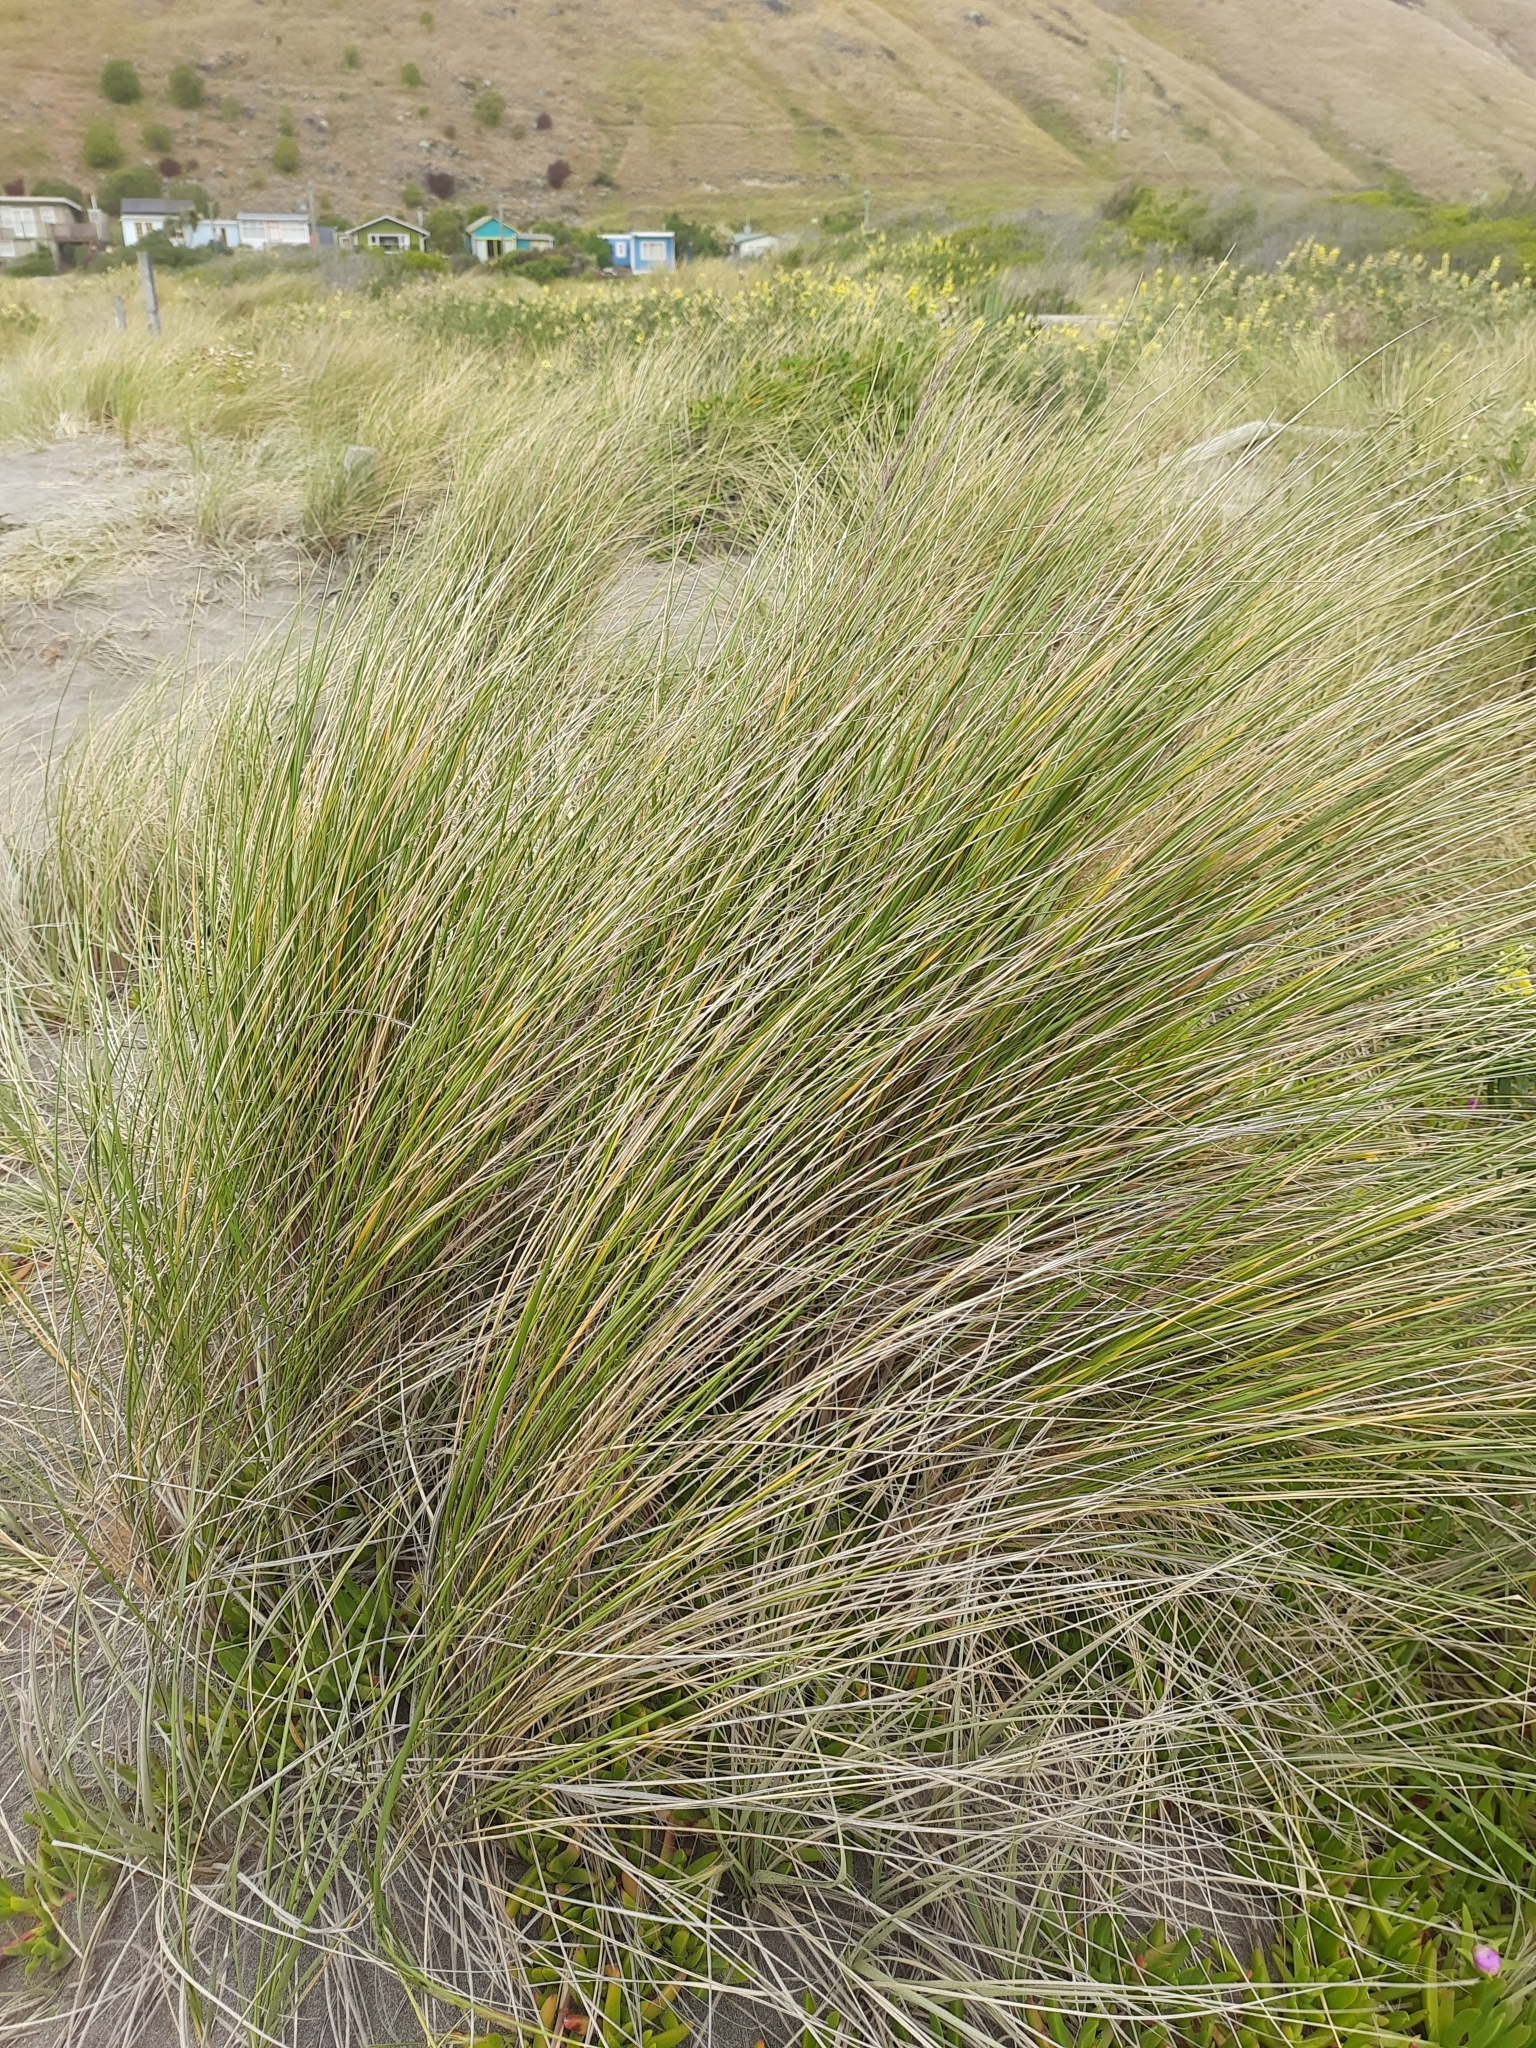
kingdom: Plantae
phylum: Tracheophyta
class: Liliopsida
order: Poales
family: Poaceae
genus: Calamagrostis
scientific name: Calamagrostis arenaria
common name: European beachgrass
